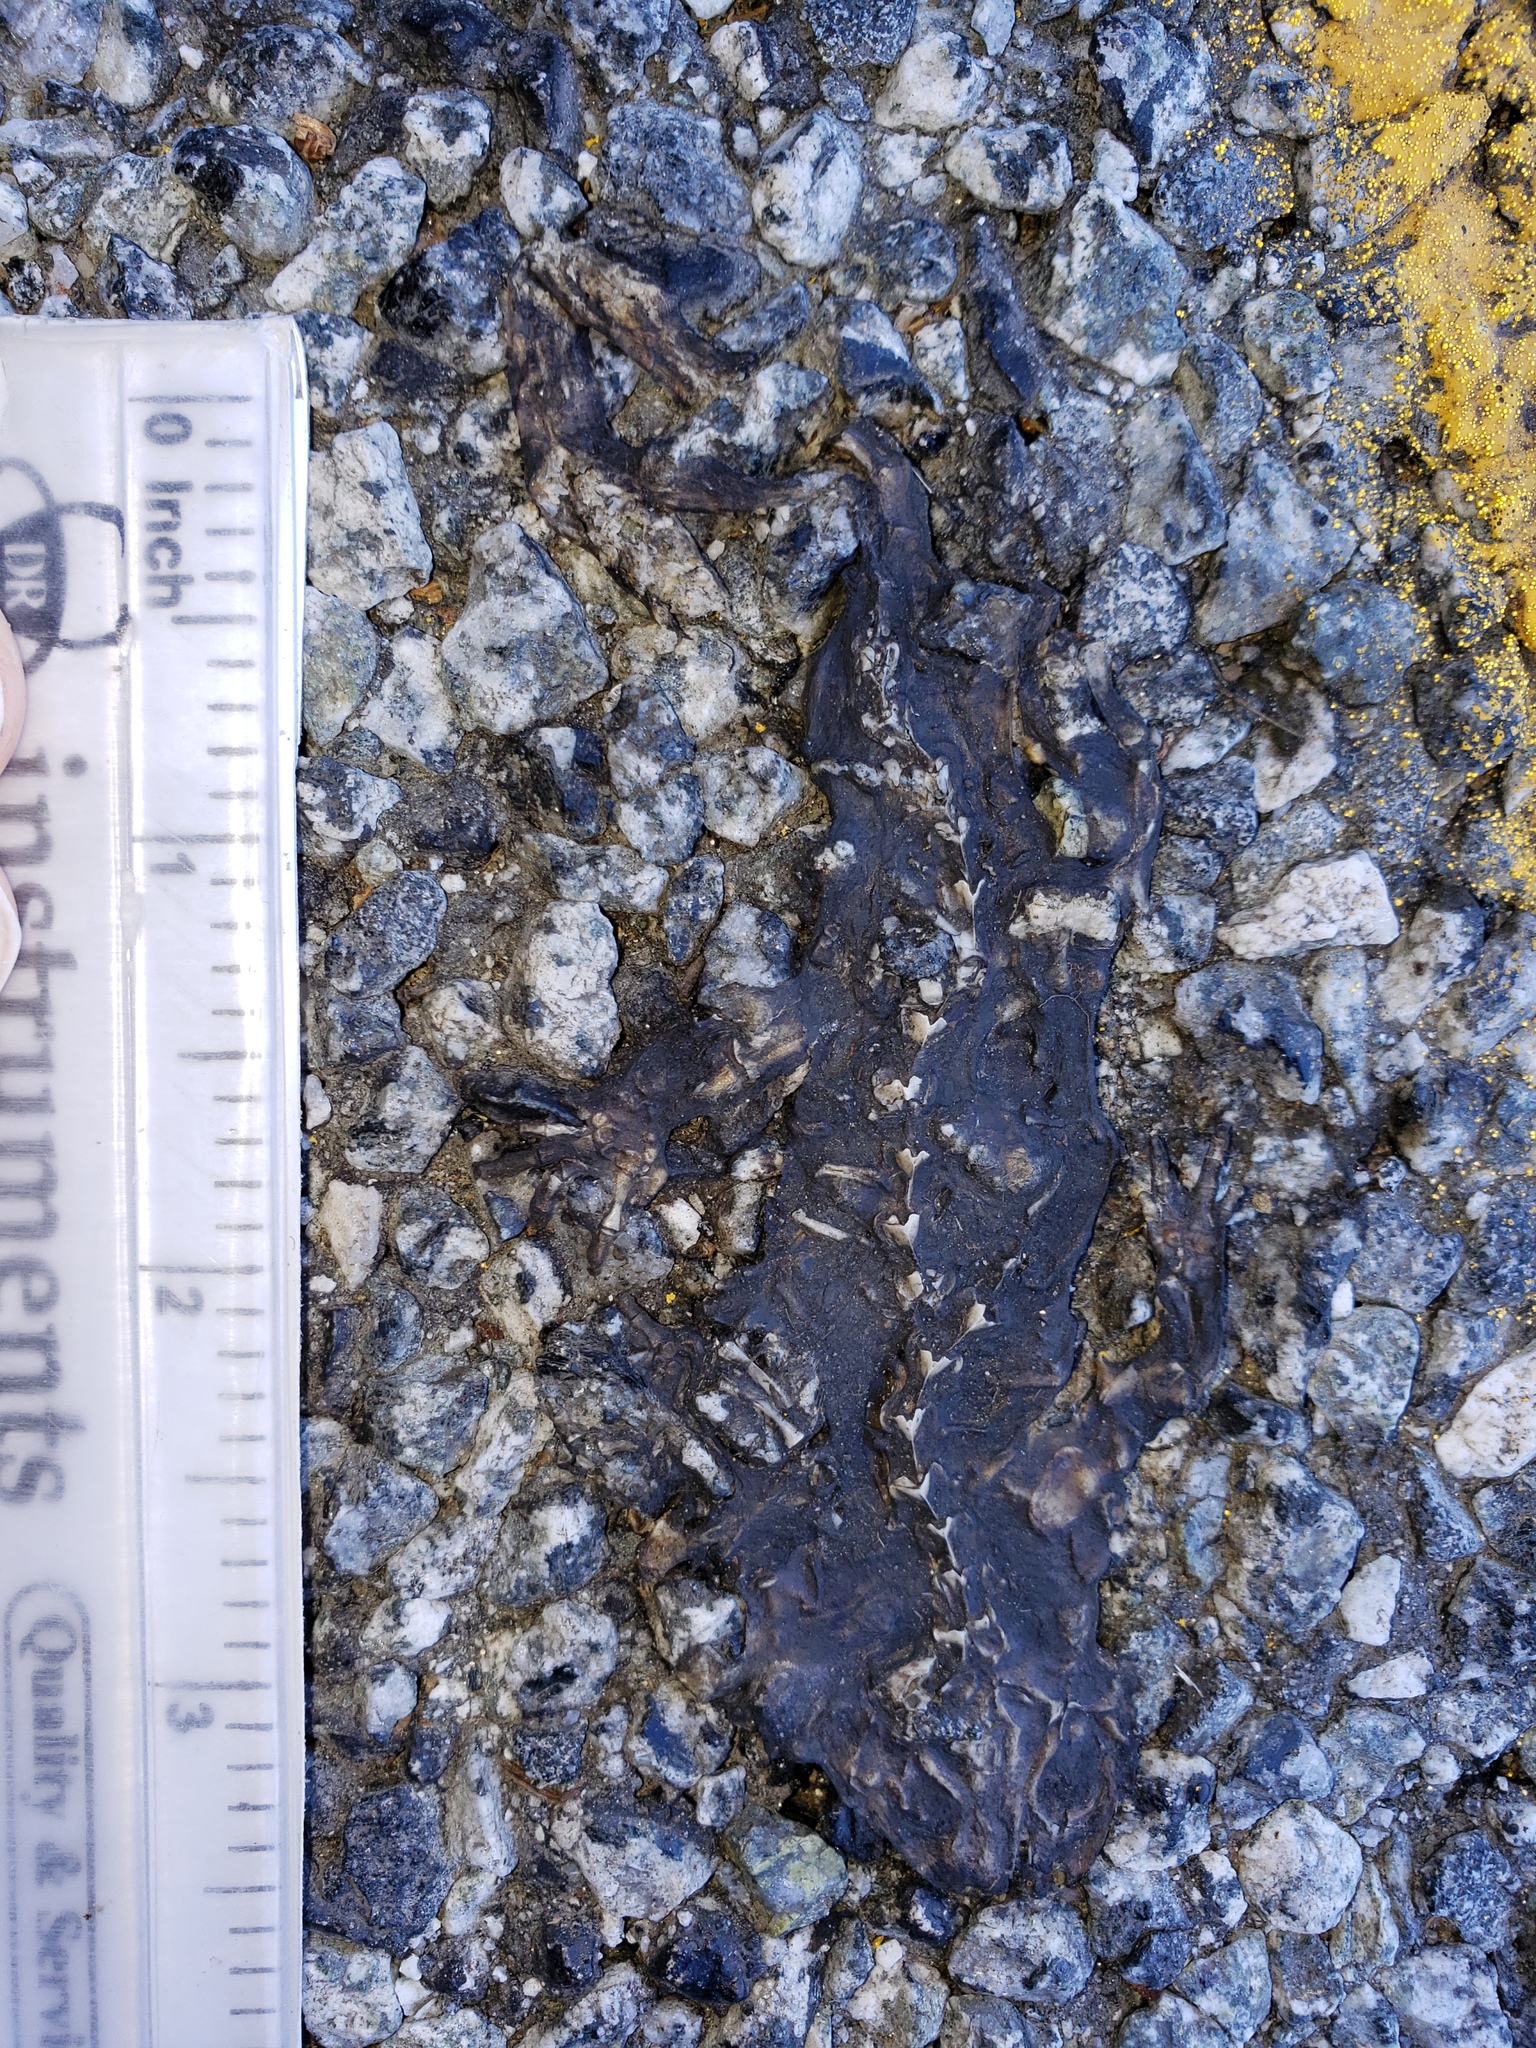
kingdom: Animalia
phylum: Chordata
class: Amphibia
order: Caudata
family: Salamandridae
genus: Taricha
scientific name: Taricha
